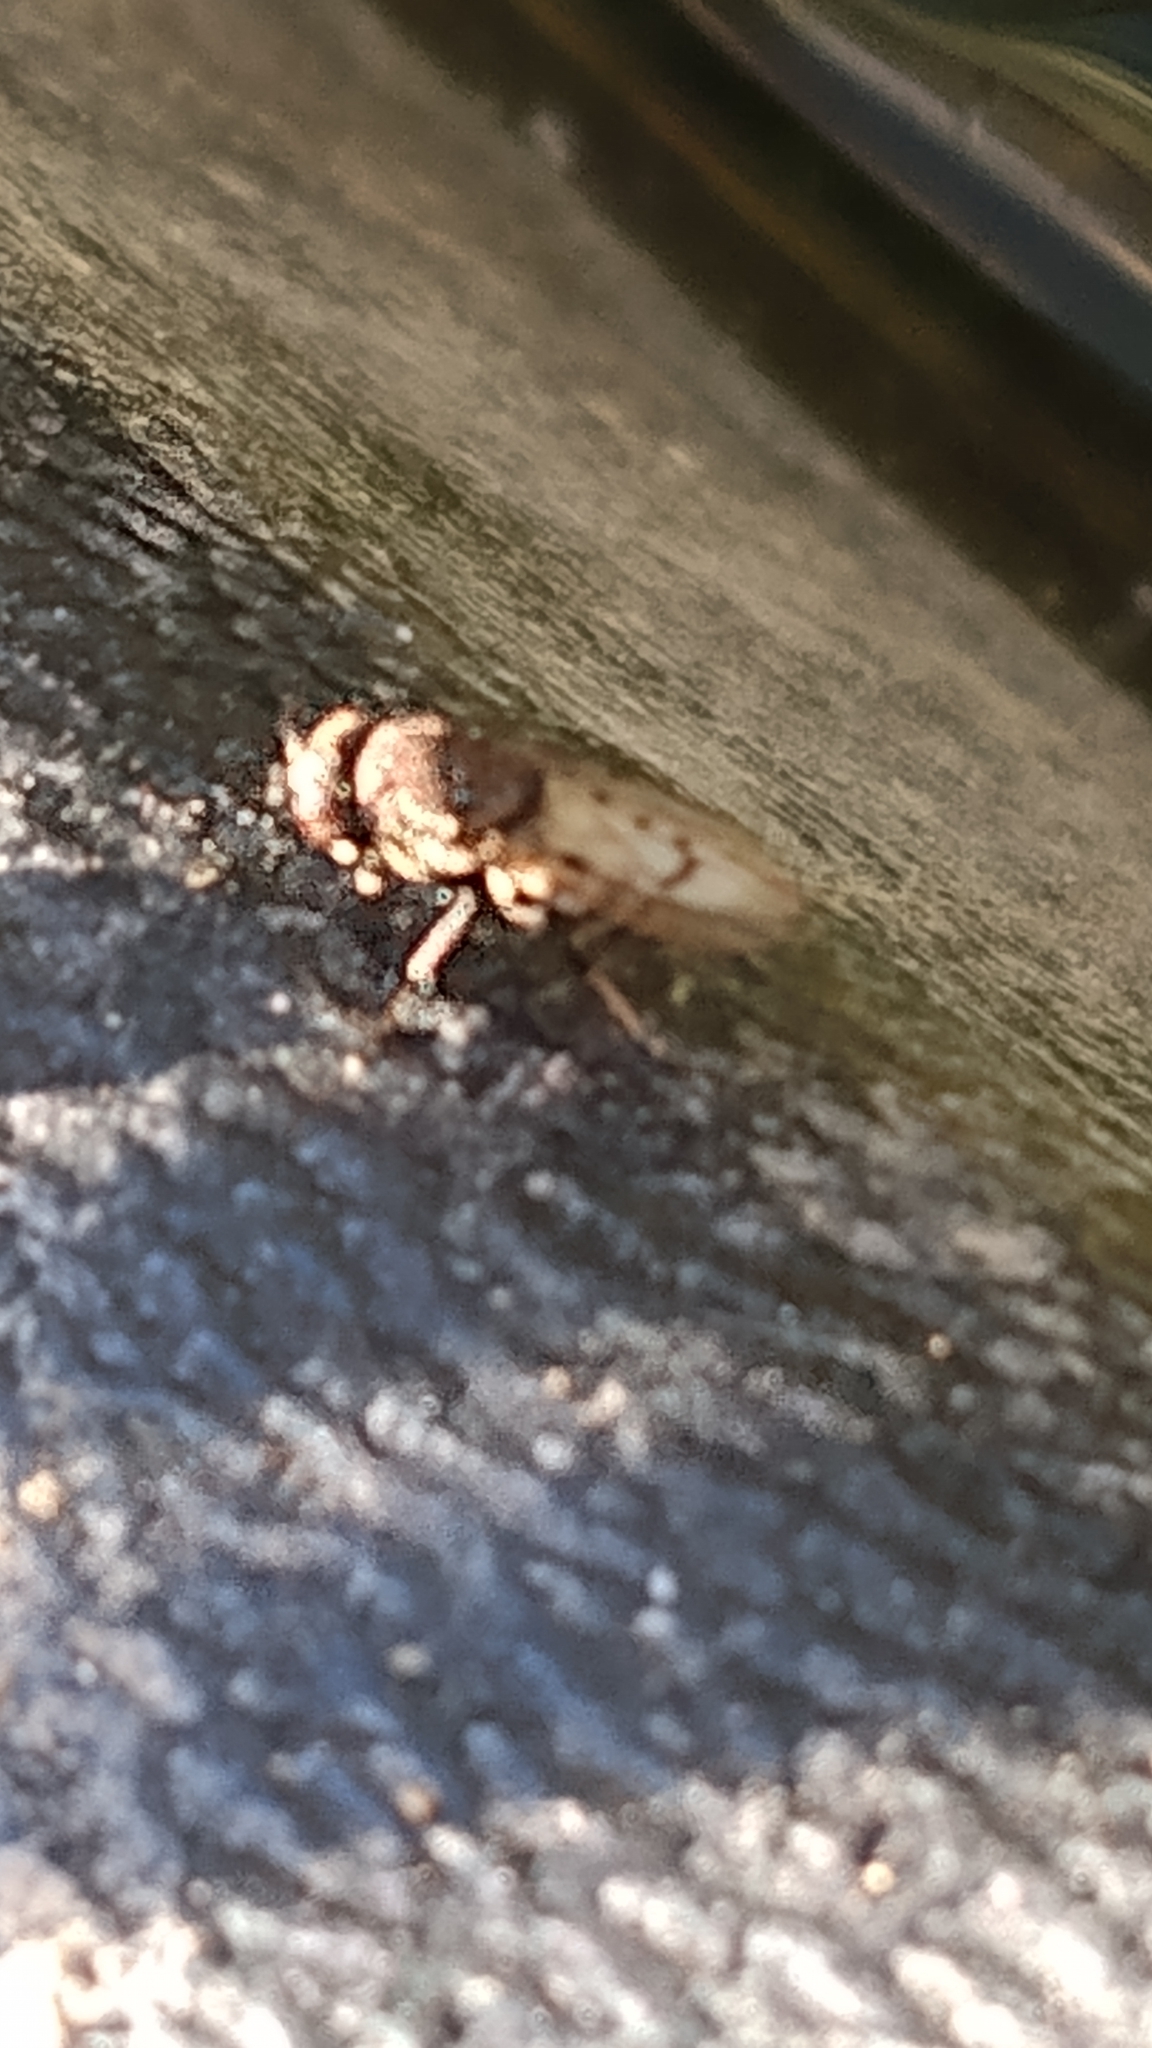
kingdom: Animalia
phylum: Arthropoda
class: Insecta
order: Diptera
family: Ephydridae
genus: Paralimna
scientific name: Paralimna punctipennis
